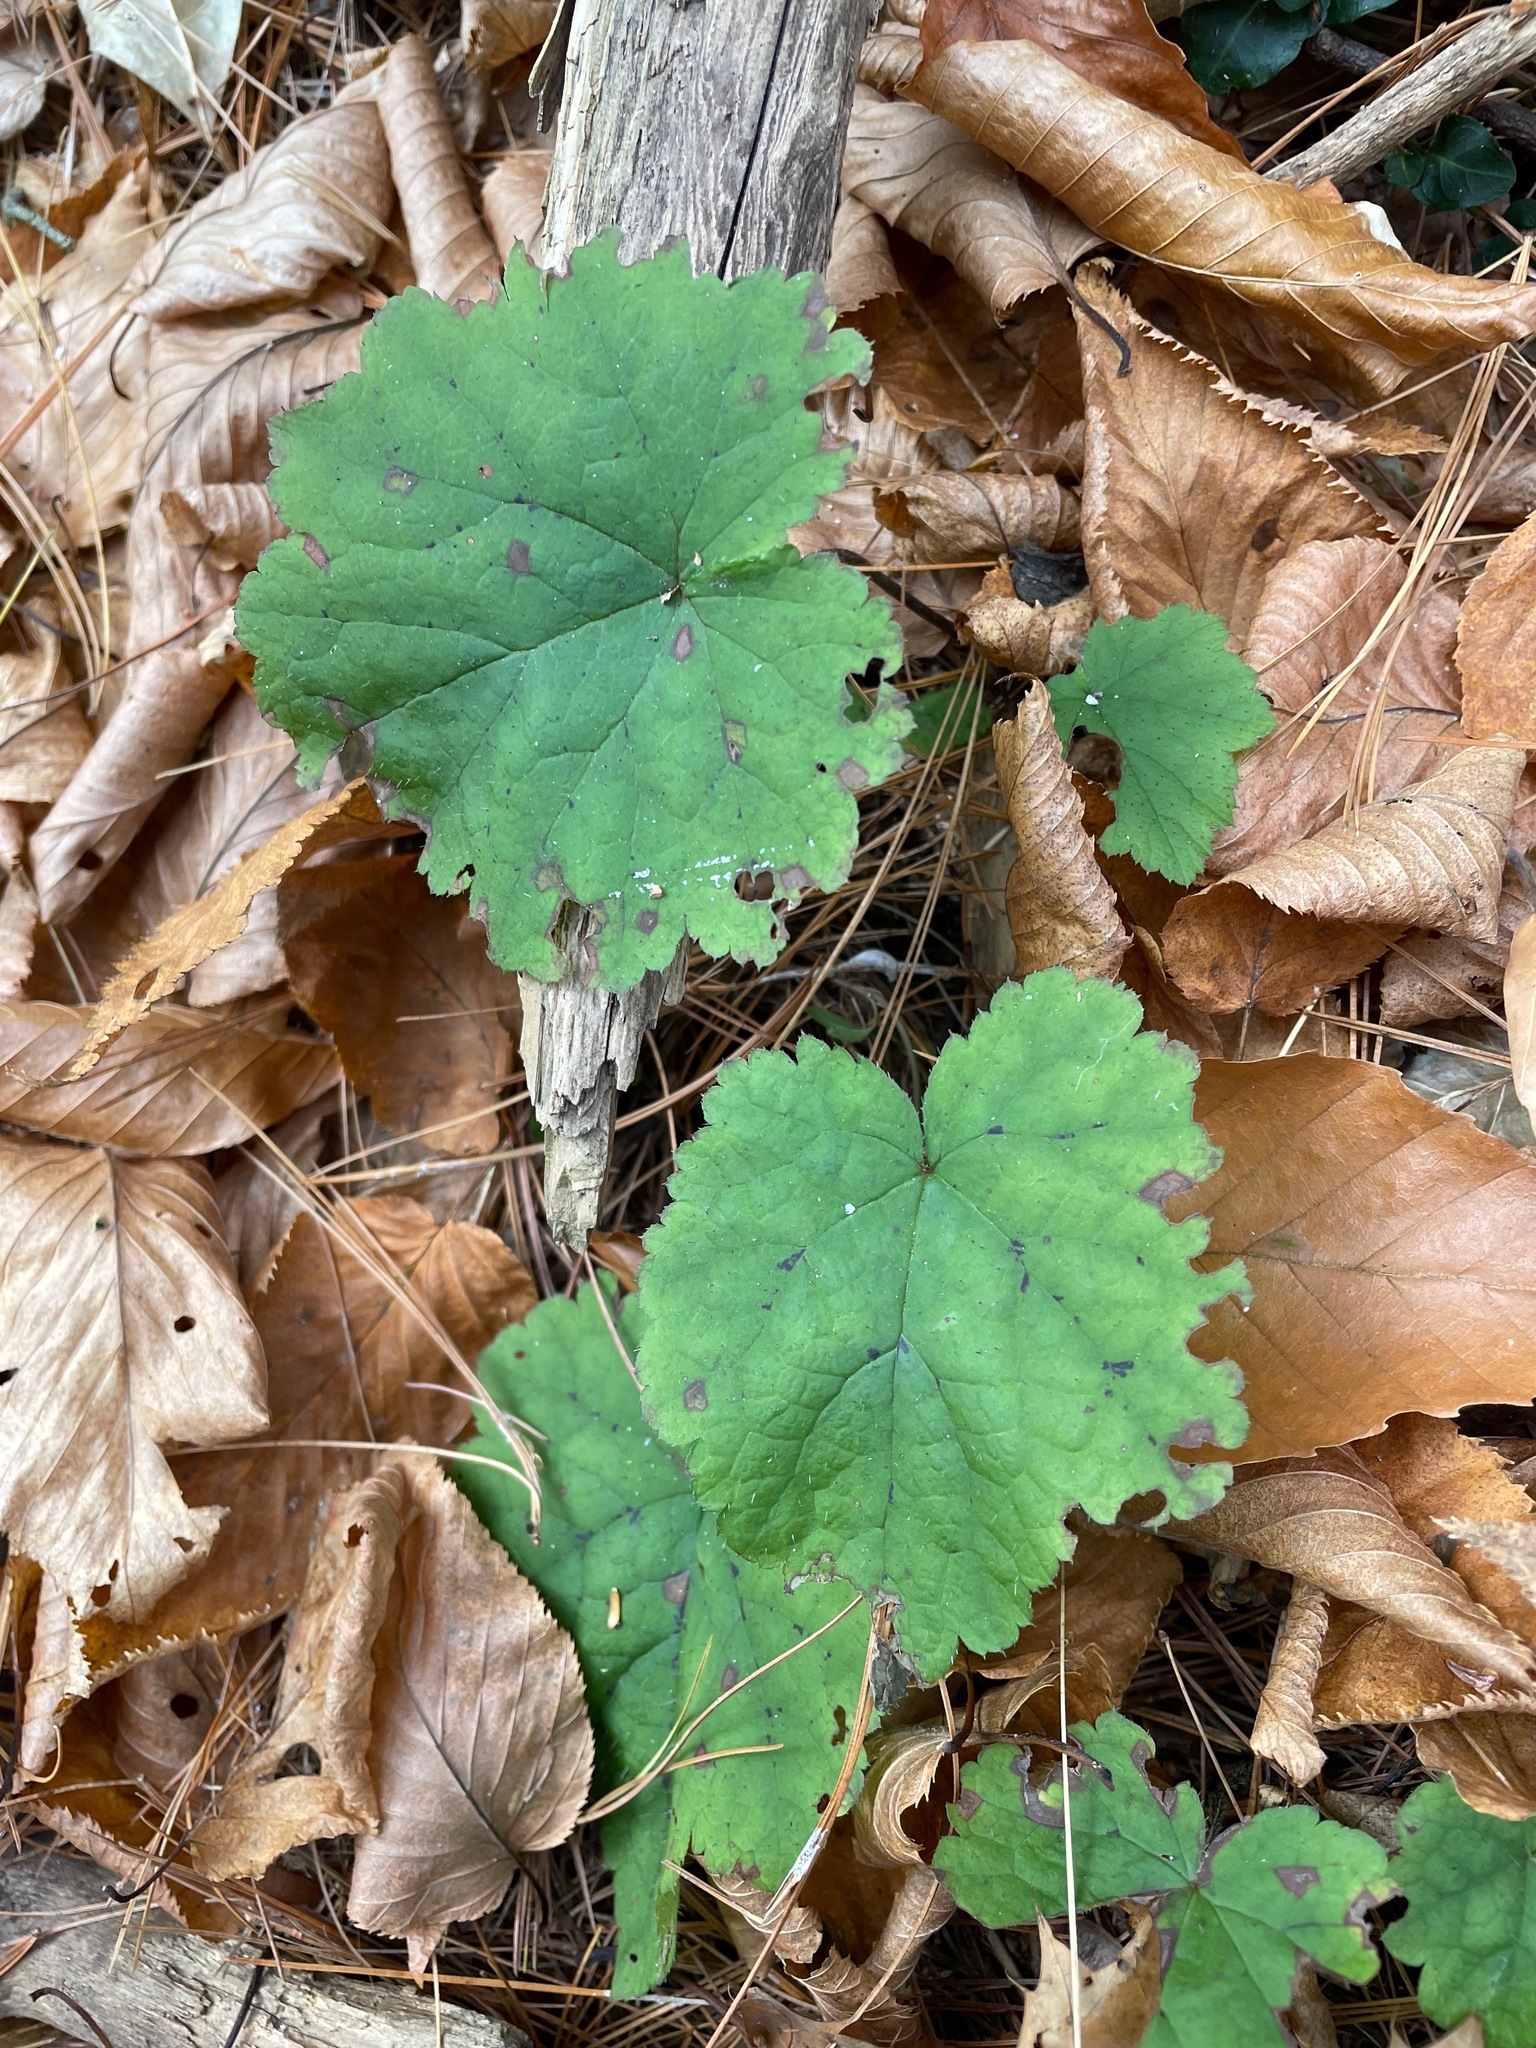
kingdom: Plantae
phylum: Tracheophyta
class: Magnoliopsida
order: Saxifragales
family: Saxifragaceae
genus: Tiarella
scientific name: Tiarella stolonifera
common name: Stoloniferous foamflower
